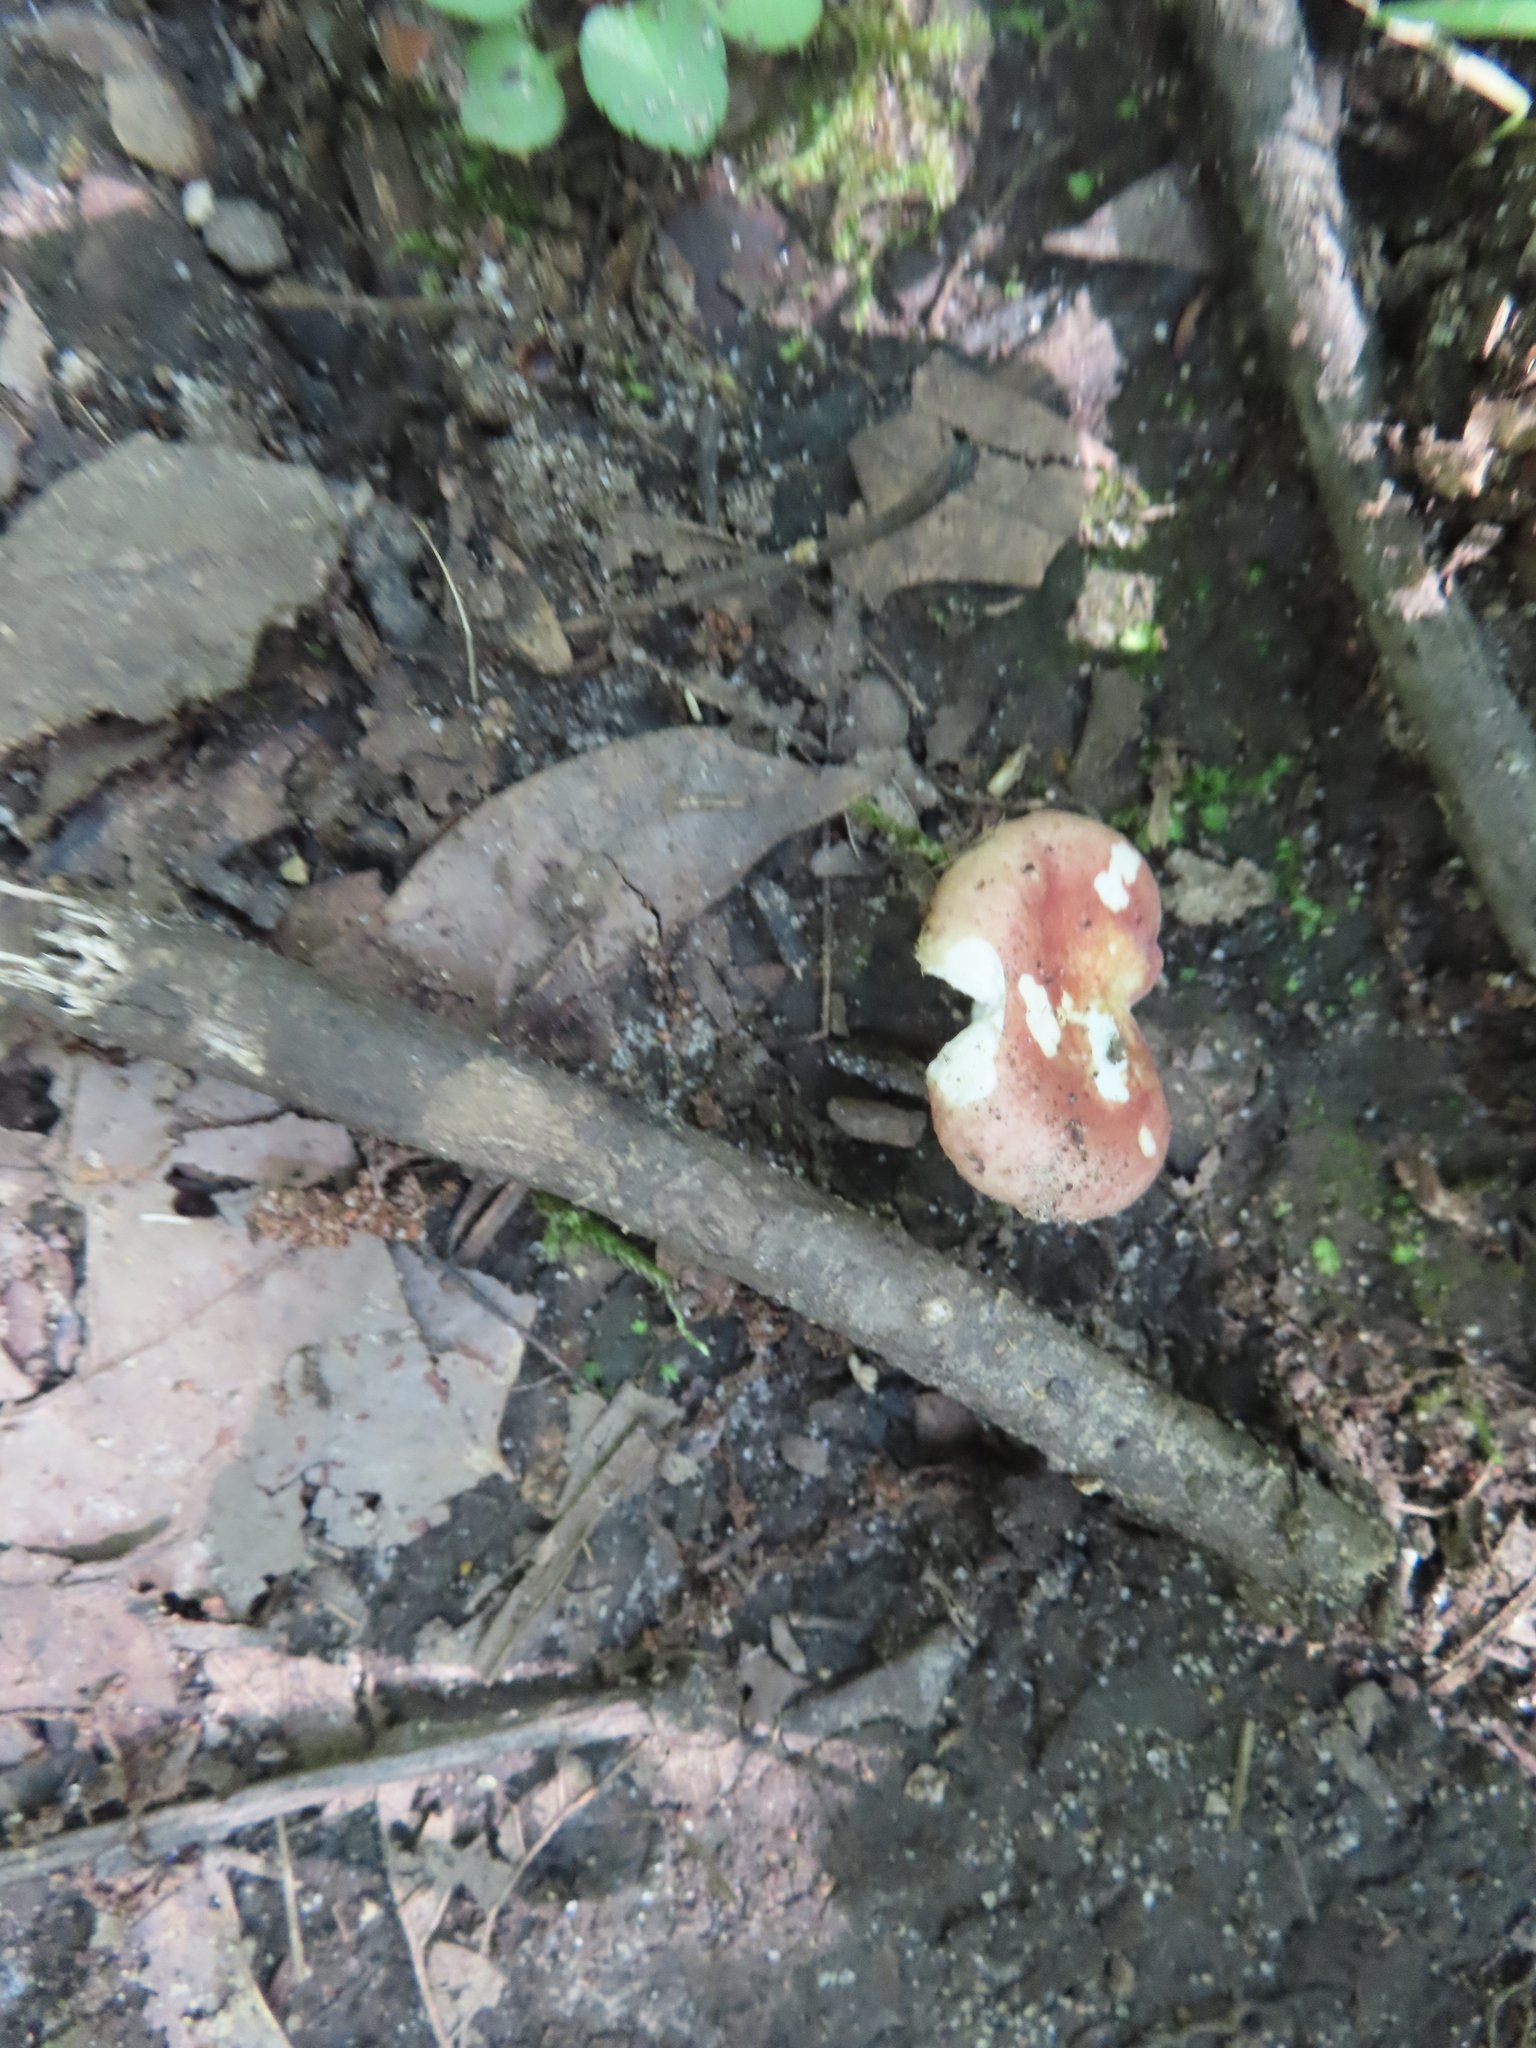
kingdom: Fungi
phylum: Basidiomycota
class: Agaricomycetes
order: Russulales
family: Russulaceae
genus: Russula
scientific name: Russula
